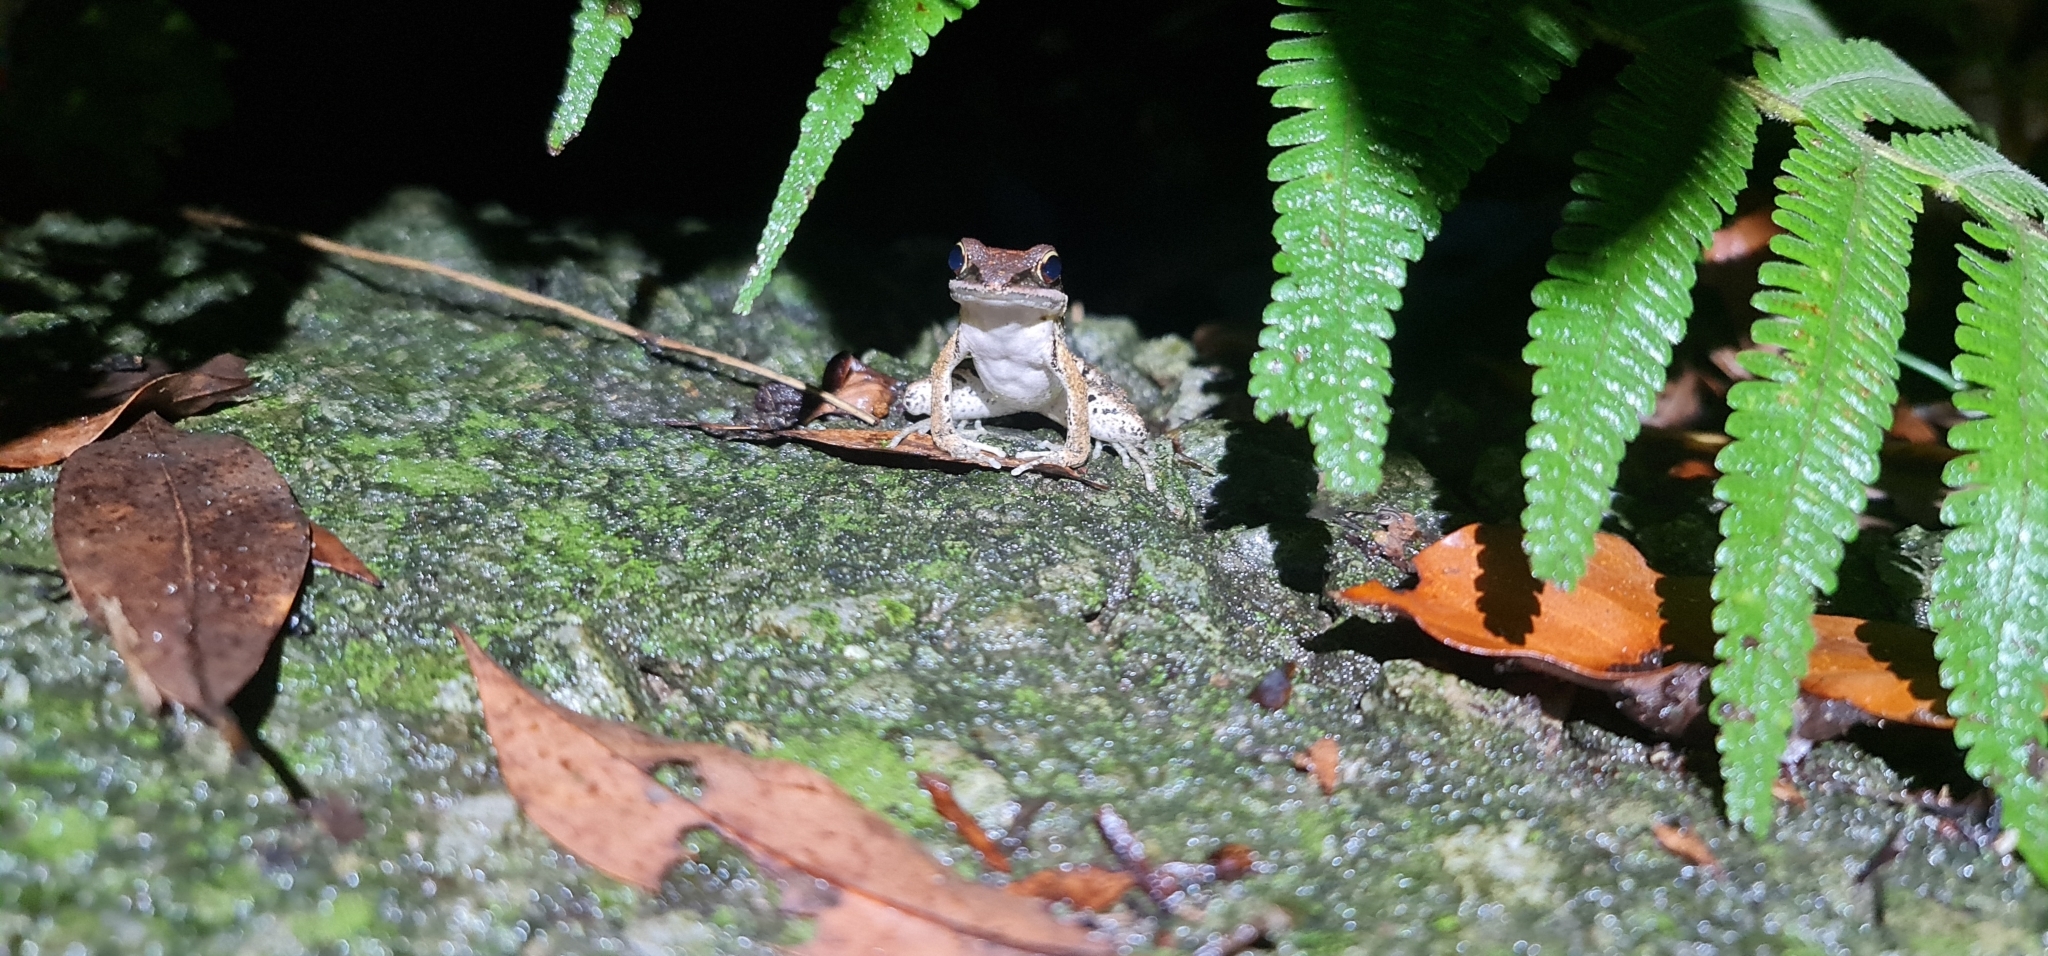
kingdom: Animalia
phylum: Chordata
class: Amphibia
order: Anura
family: Ranidae
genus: Hylarana
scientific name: Hylarana latouchii
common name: Broad-folded frog
